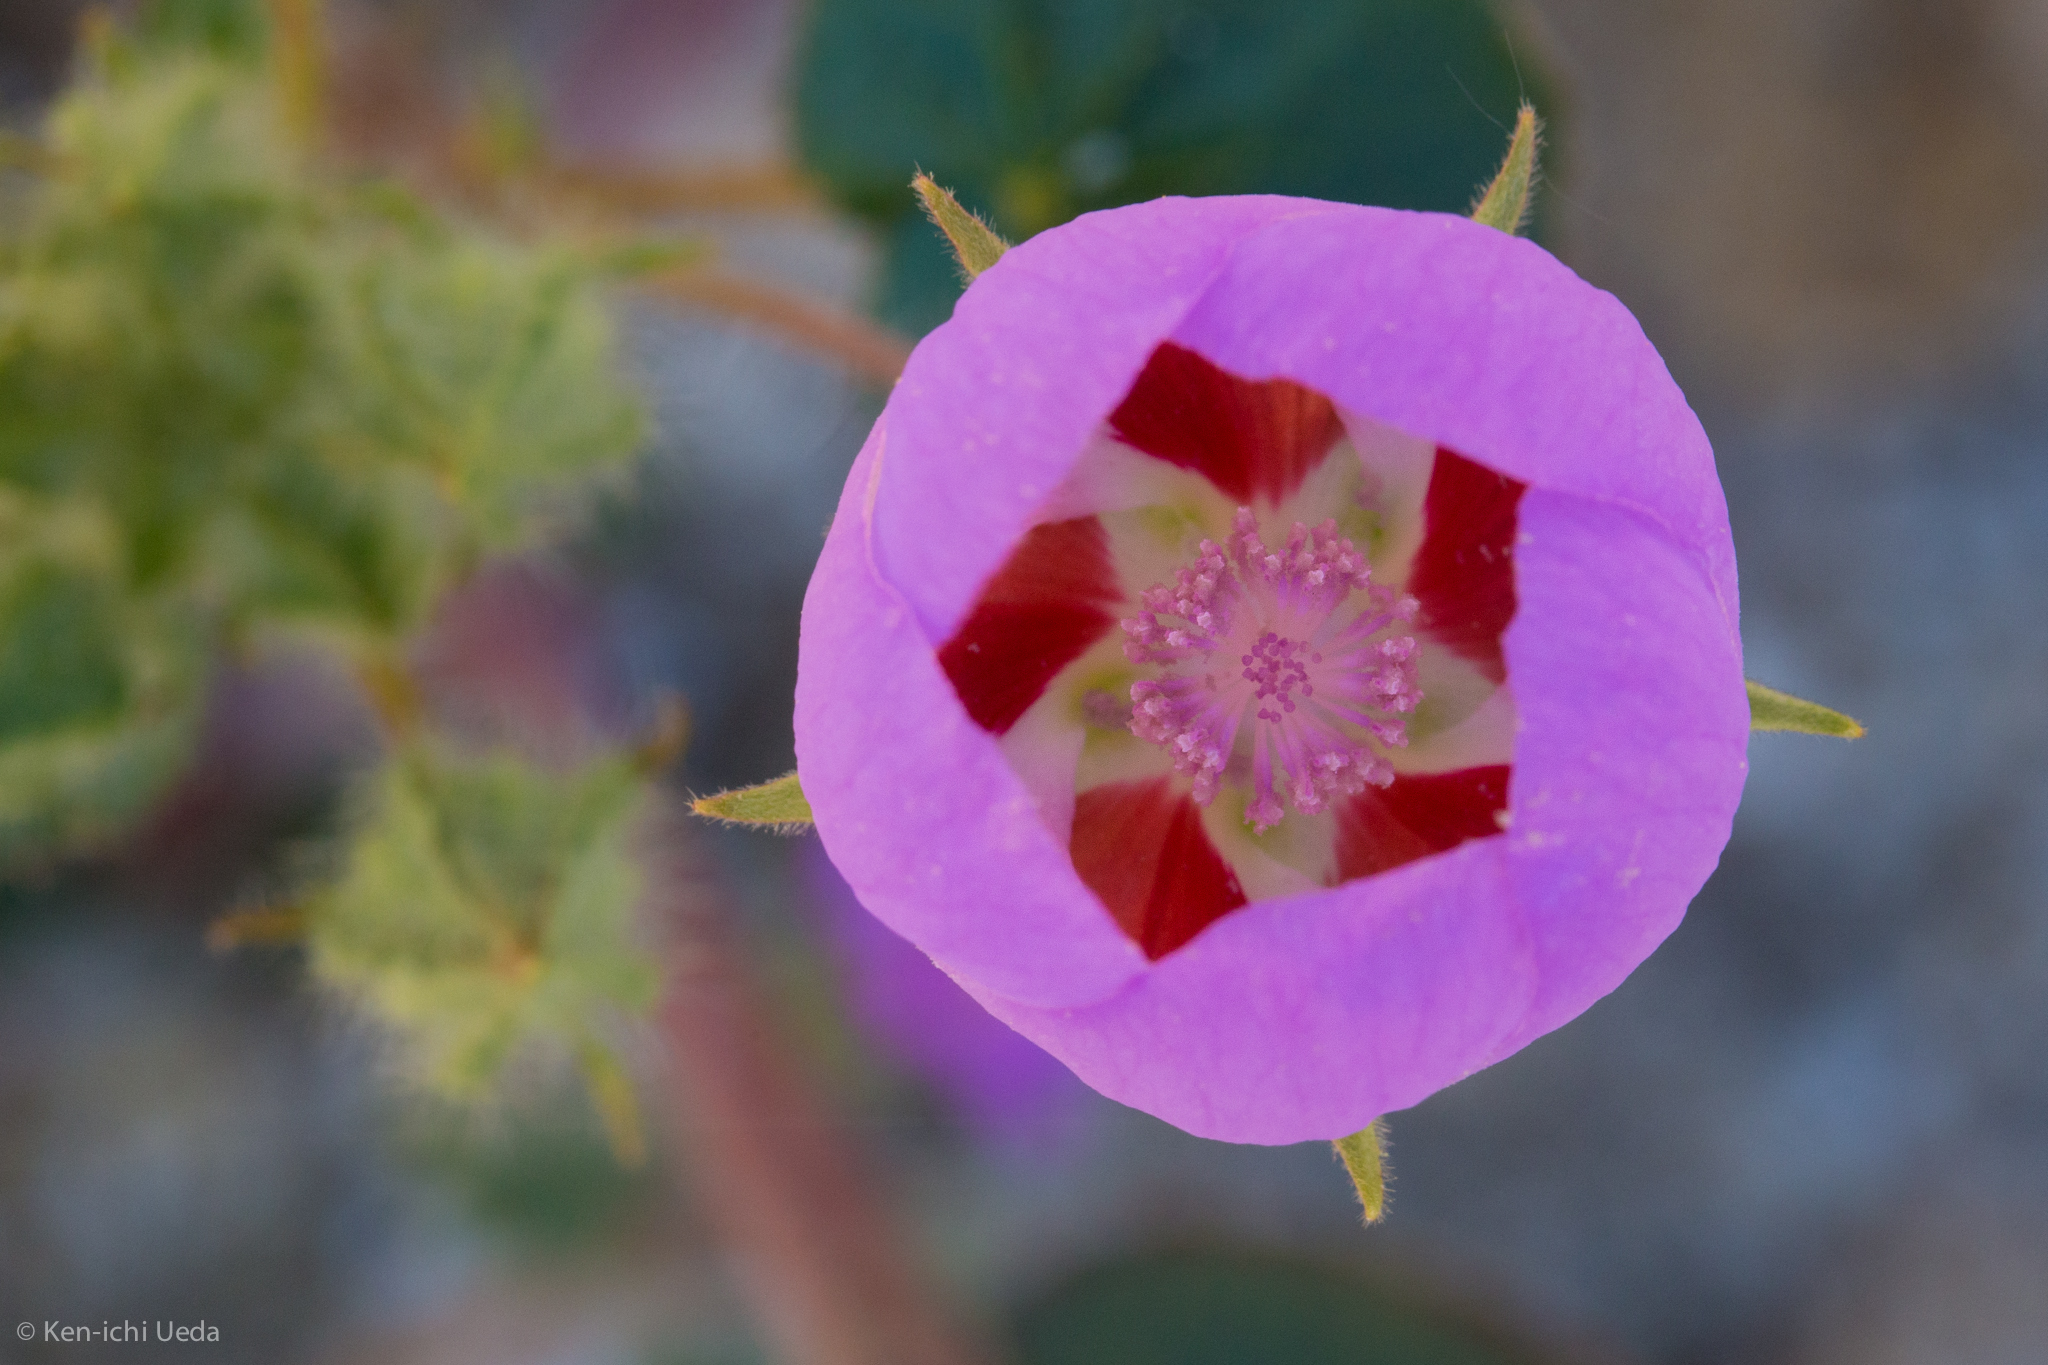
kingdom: Plantae
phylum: Tracheophyta
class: Magnoliopsida
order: Malvales
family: Malvaceae
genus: Eremalche
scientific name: Eremalche rotundifolia
